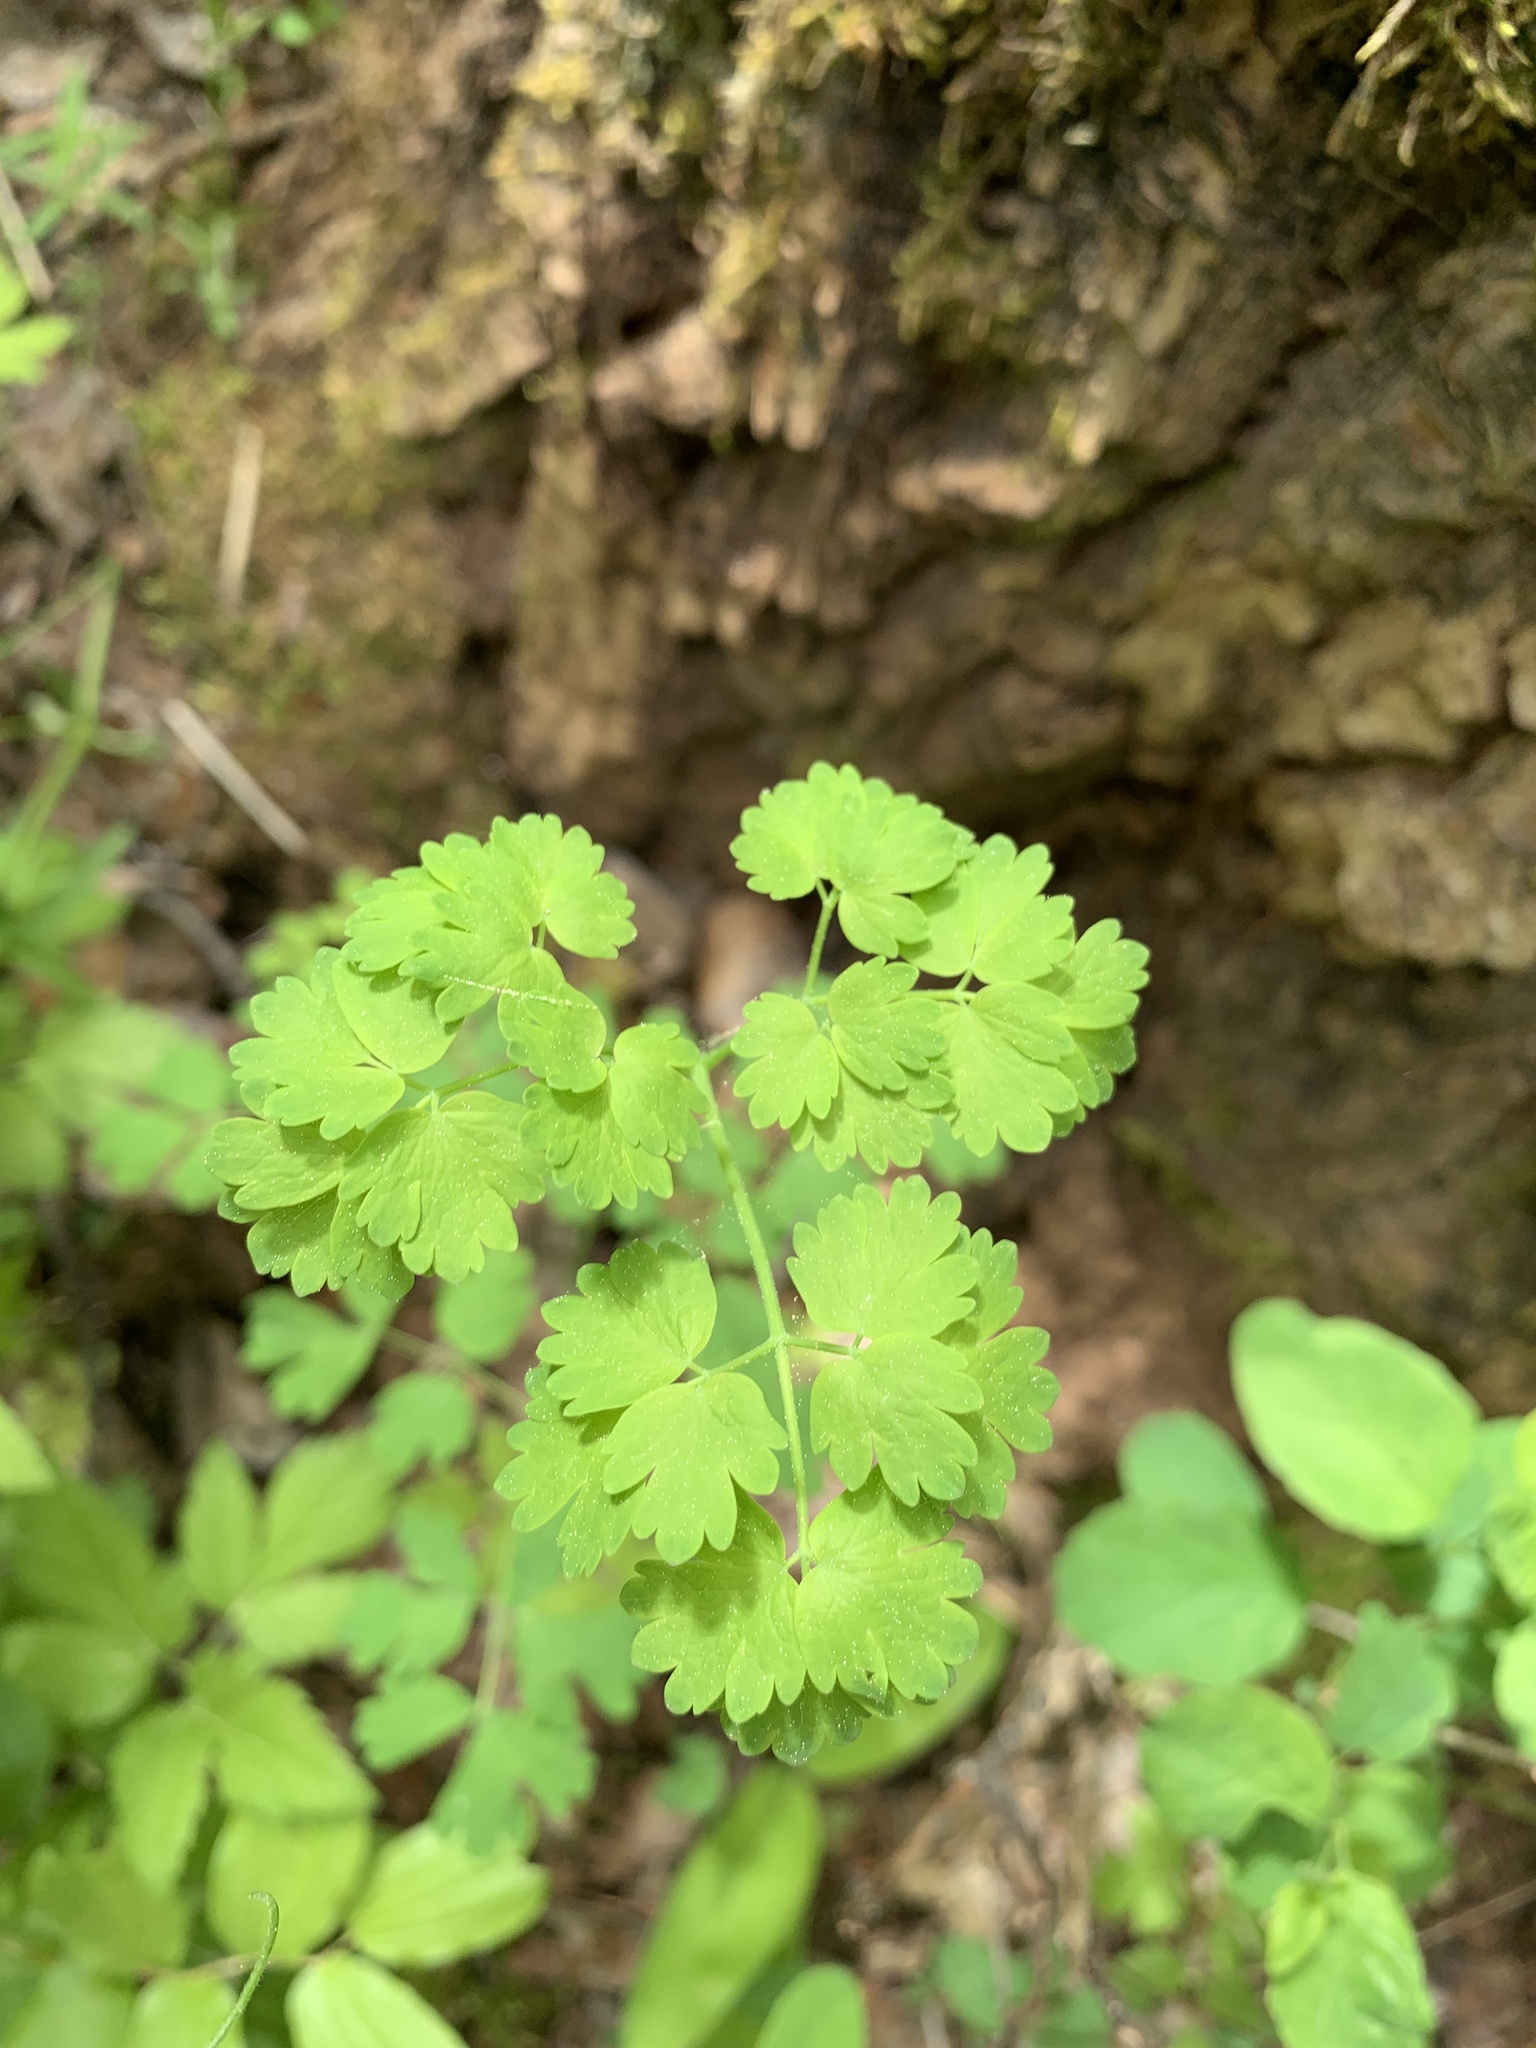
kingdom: Plantae
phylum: Tracheophyta
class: Magnoliopsida
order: Ranunculales
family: Ranunculaceae
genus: Thalictrum
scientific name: Thalictrum occidentale
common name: Western meadow-rue
